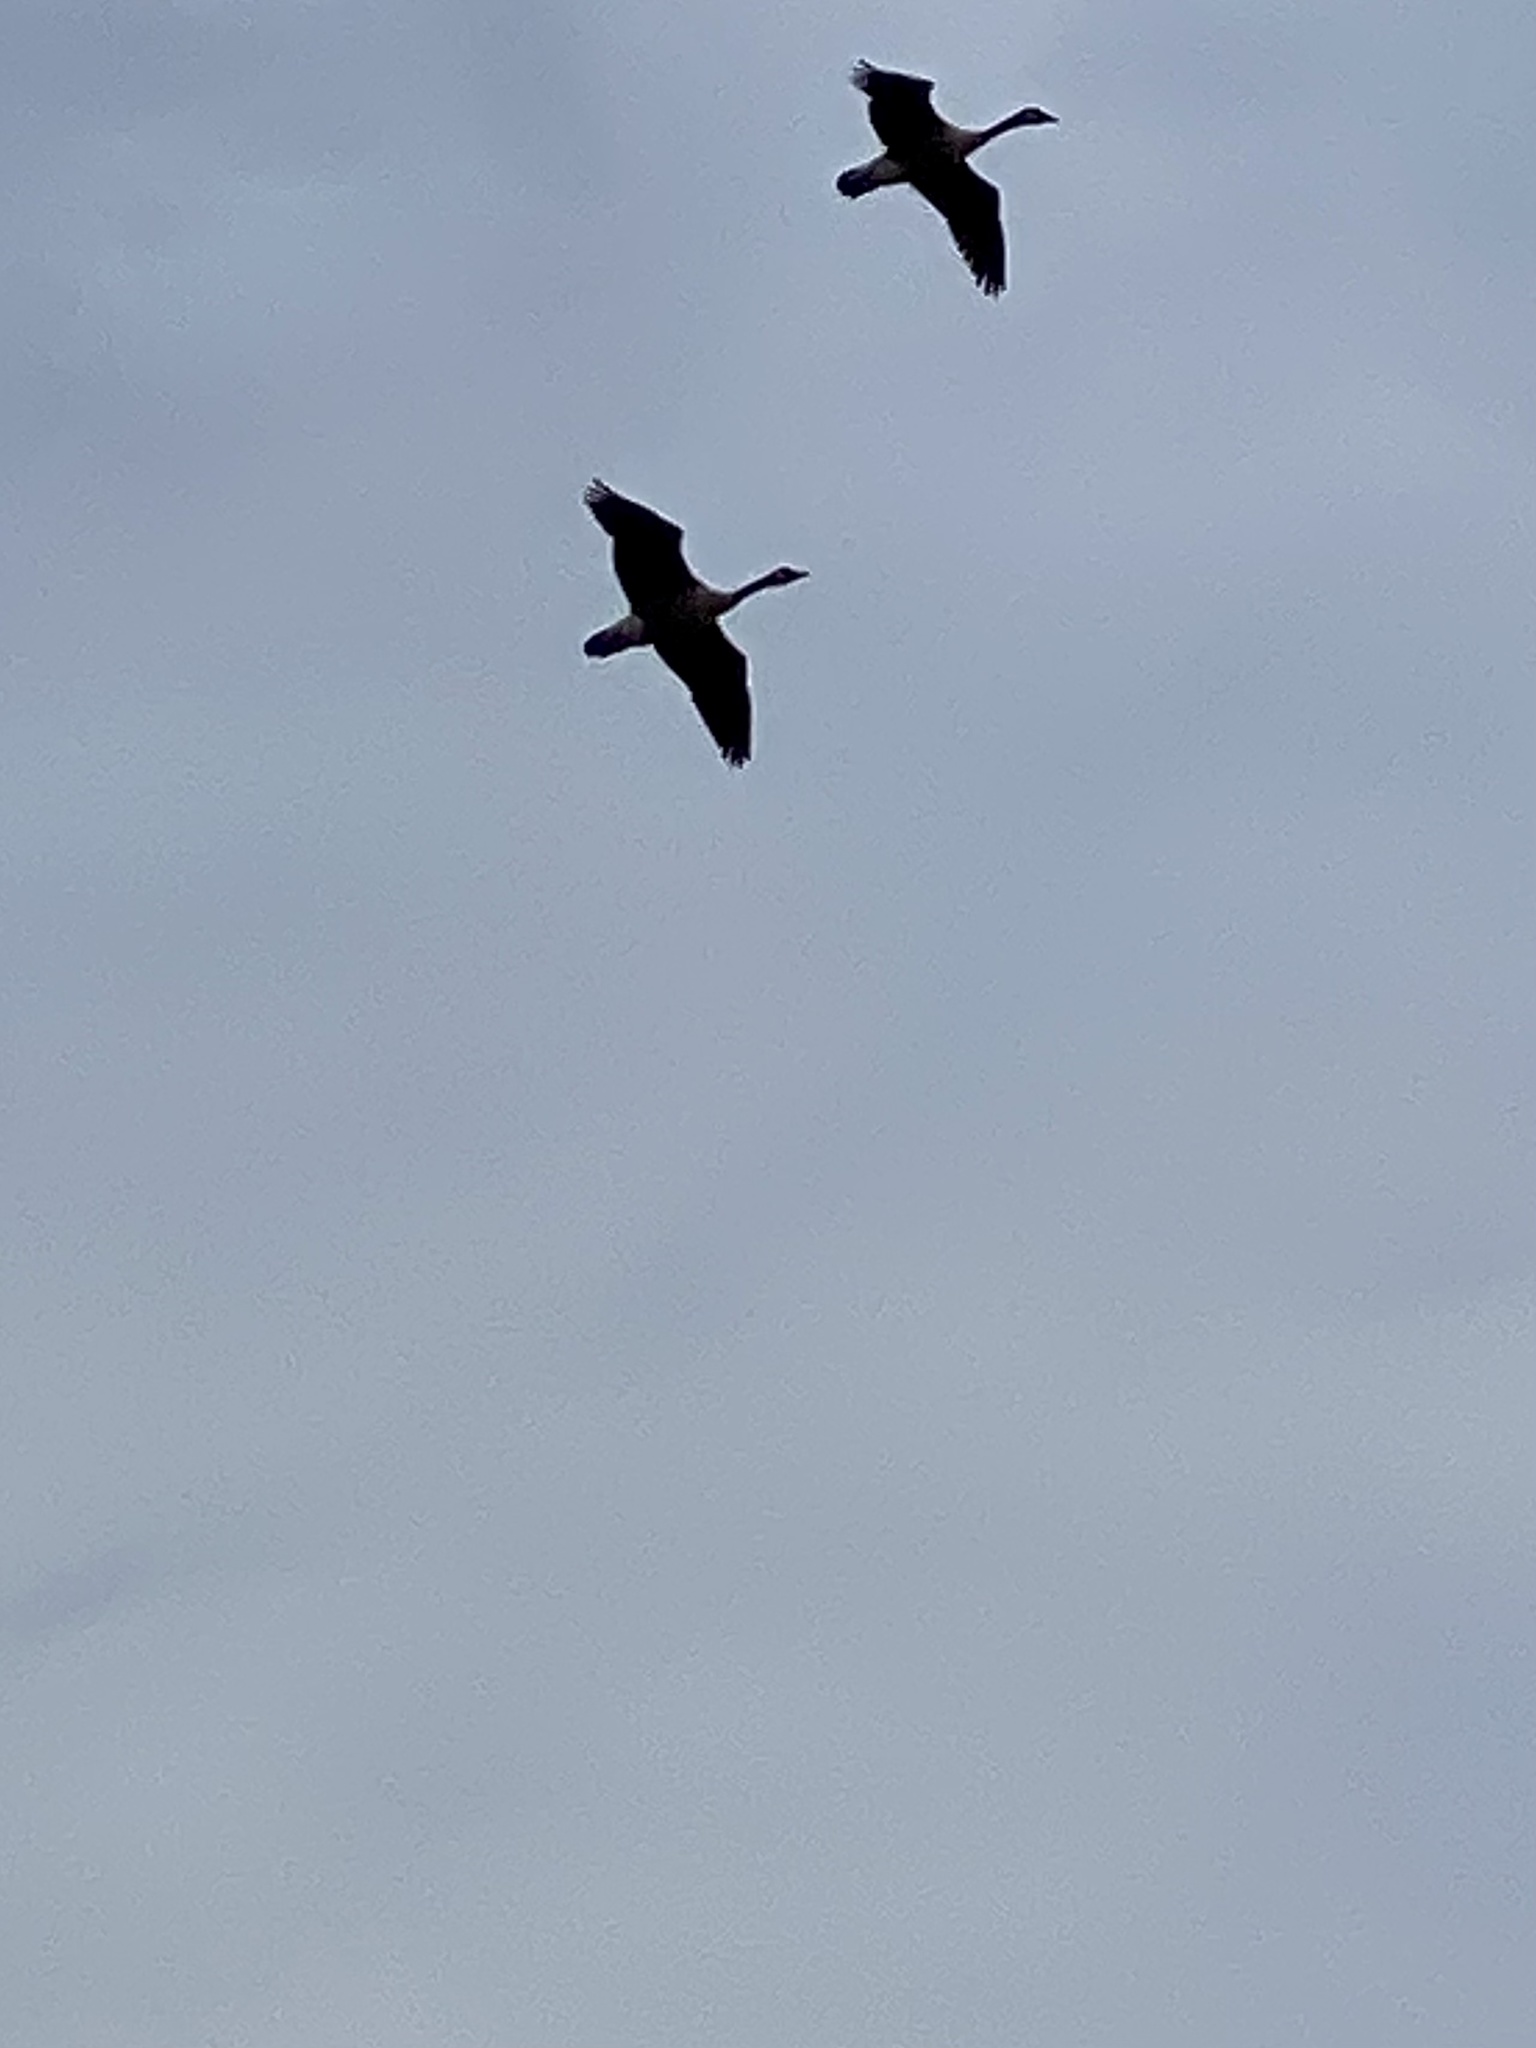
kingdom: Animalia
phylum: Chordata
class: Aves
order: Anseriformes
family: Anatidae
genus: Branta
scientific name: Branta canadensis
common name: Canada goose
